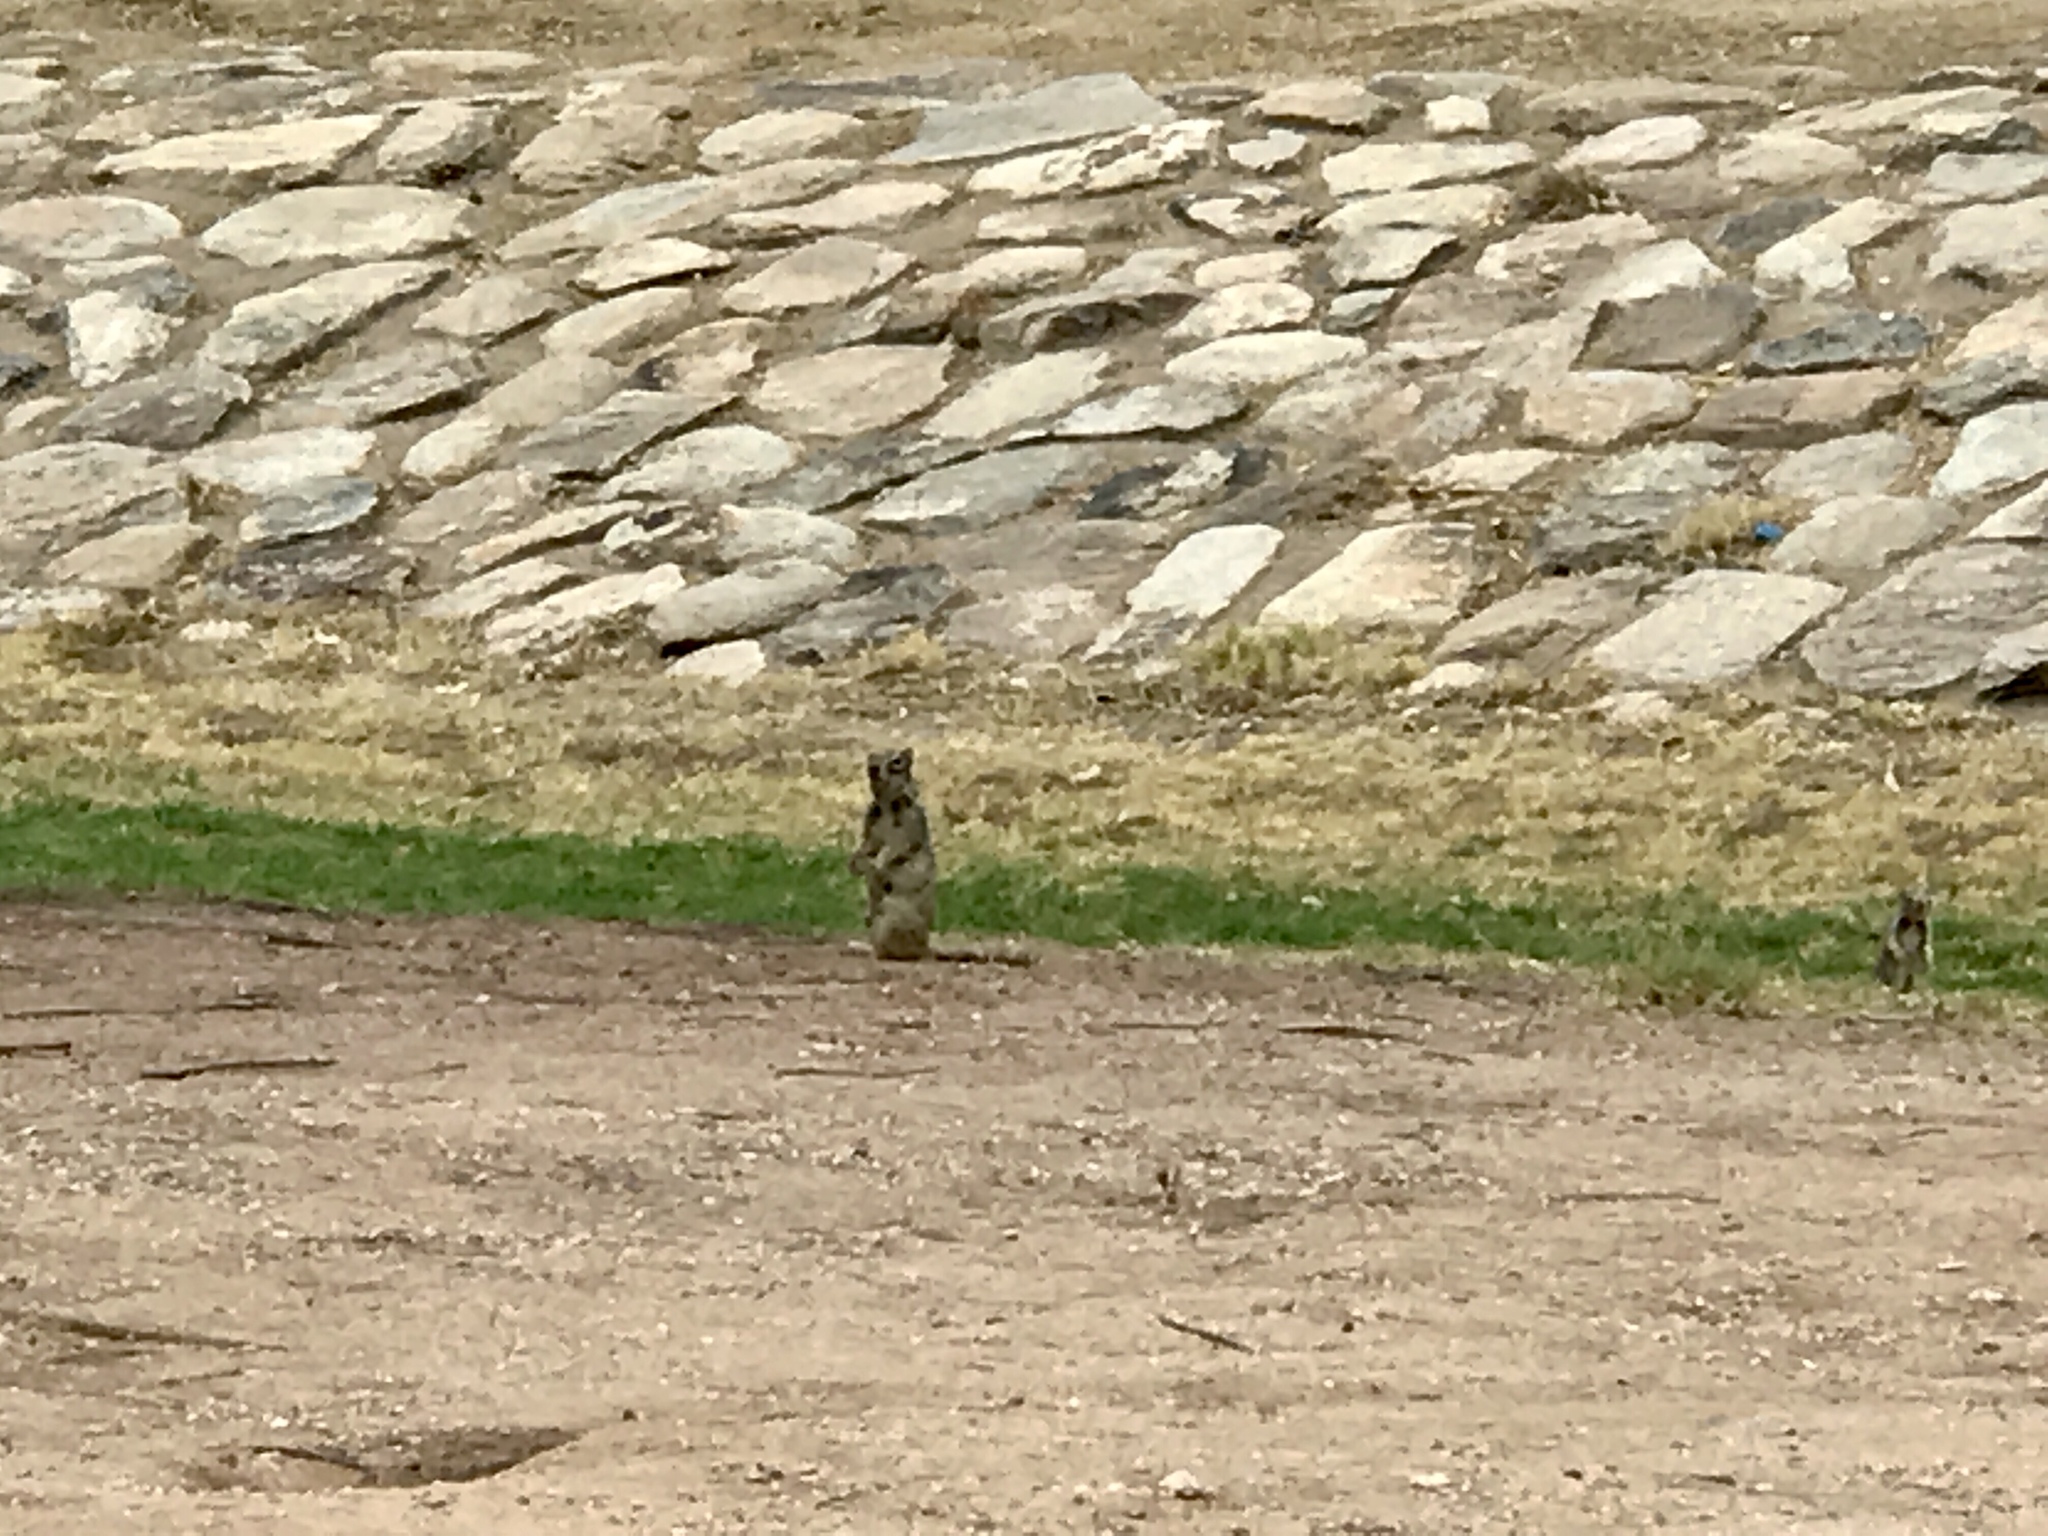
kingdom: Animalia
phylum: Chordata
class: Mammalia
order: Rodentia
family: Sciuridae
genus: Otospermophilus
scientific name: Otospermophilus variegatus
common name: Rock squirrel
